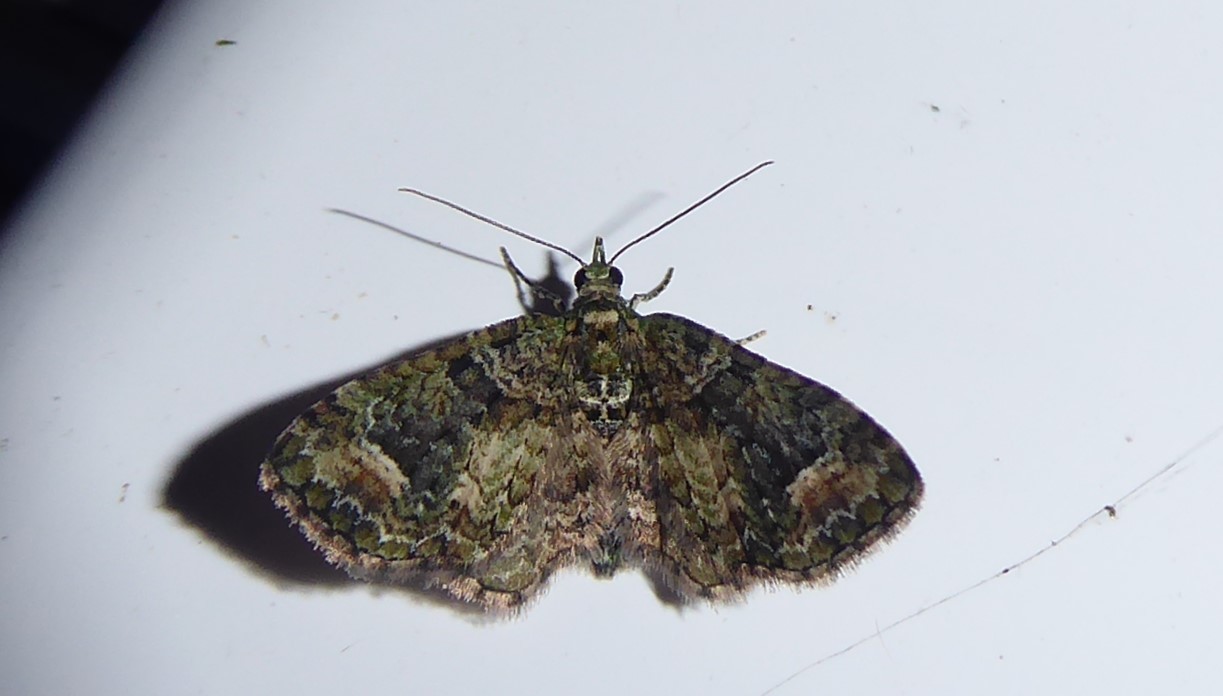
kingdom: Animalia
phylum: Arthropoda
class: Insecta
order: Lepidoptera
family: Geometridae
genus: Idaea
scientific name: Idaea mutanda
